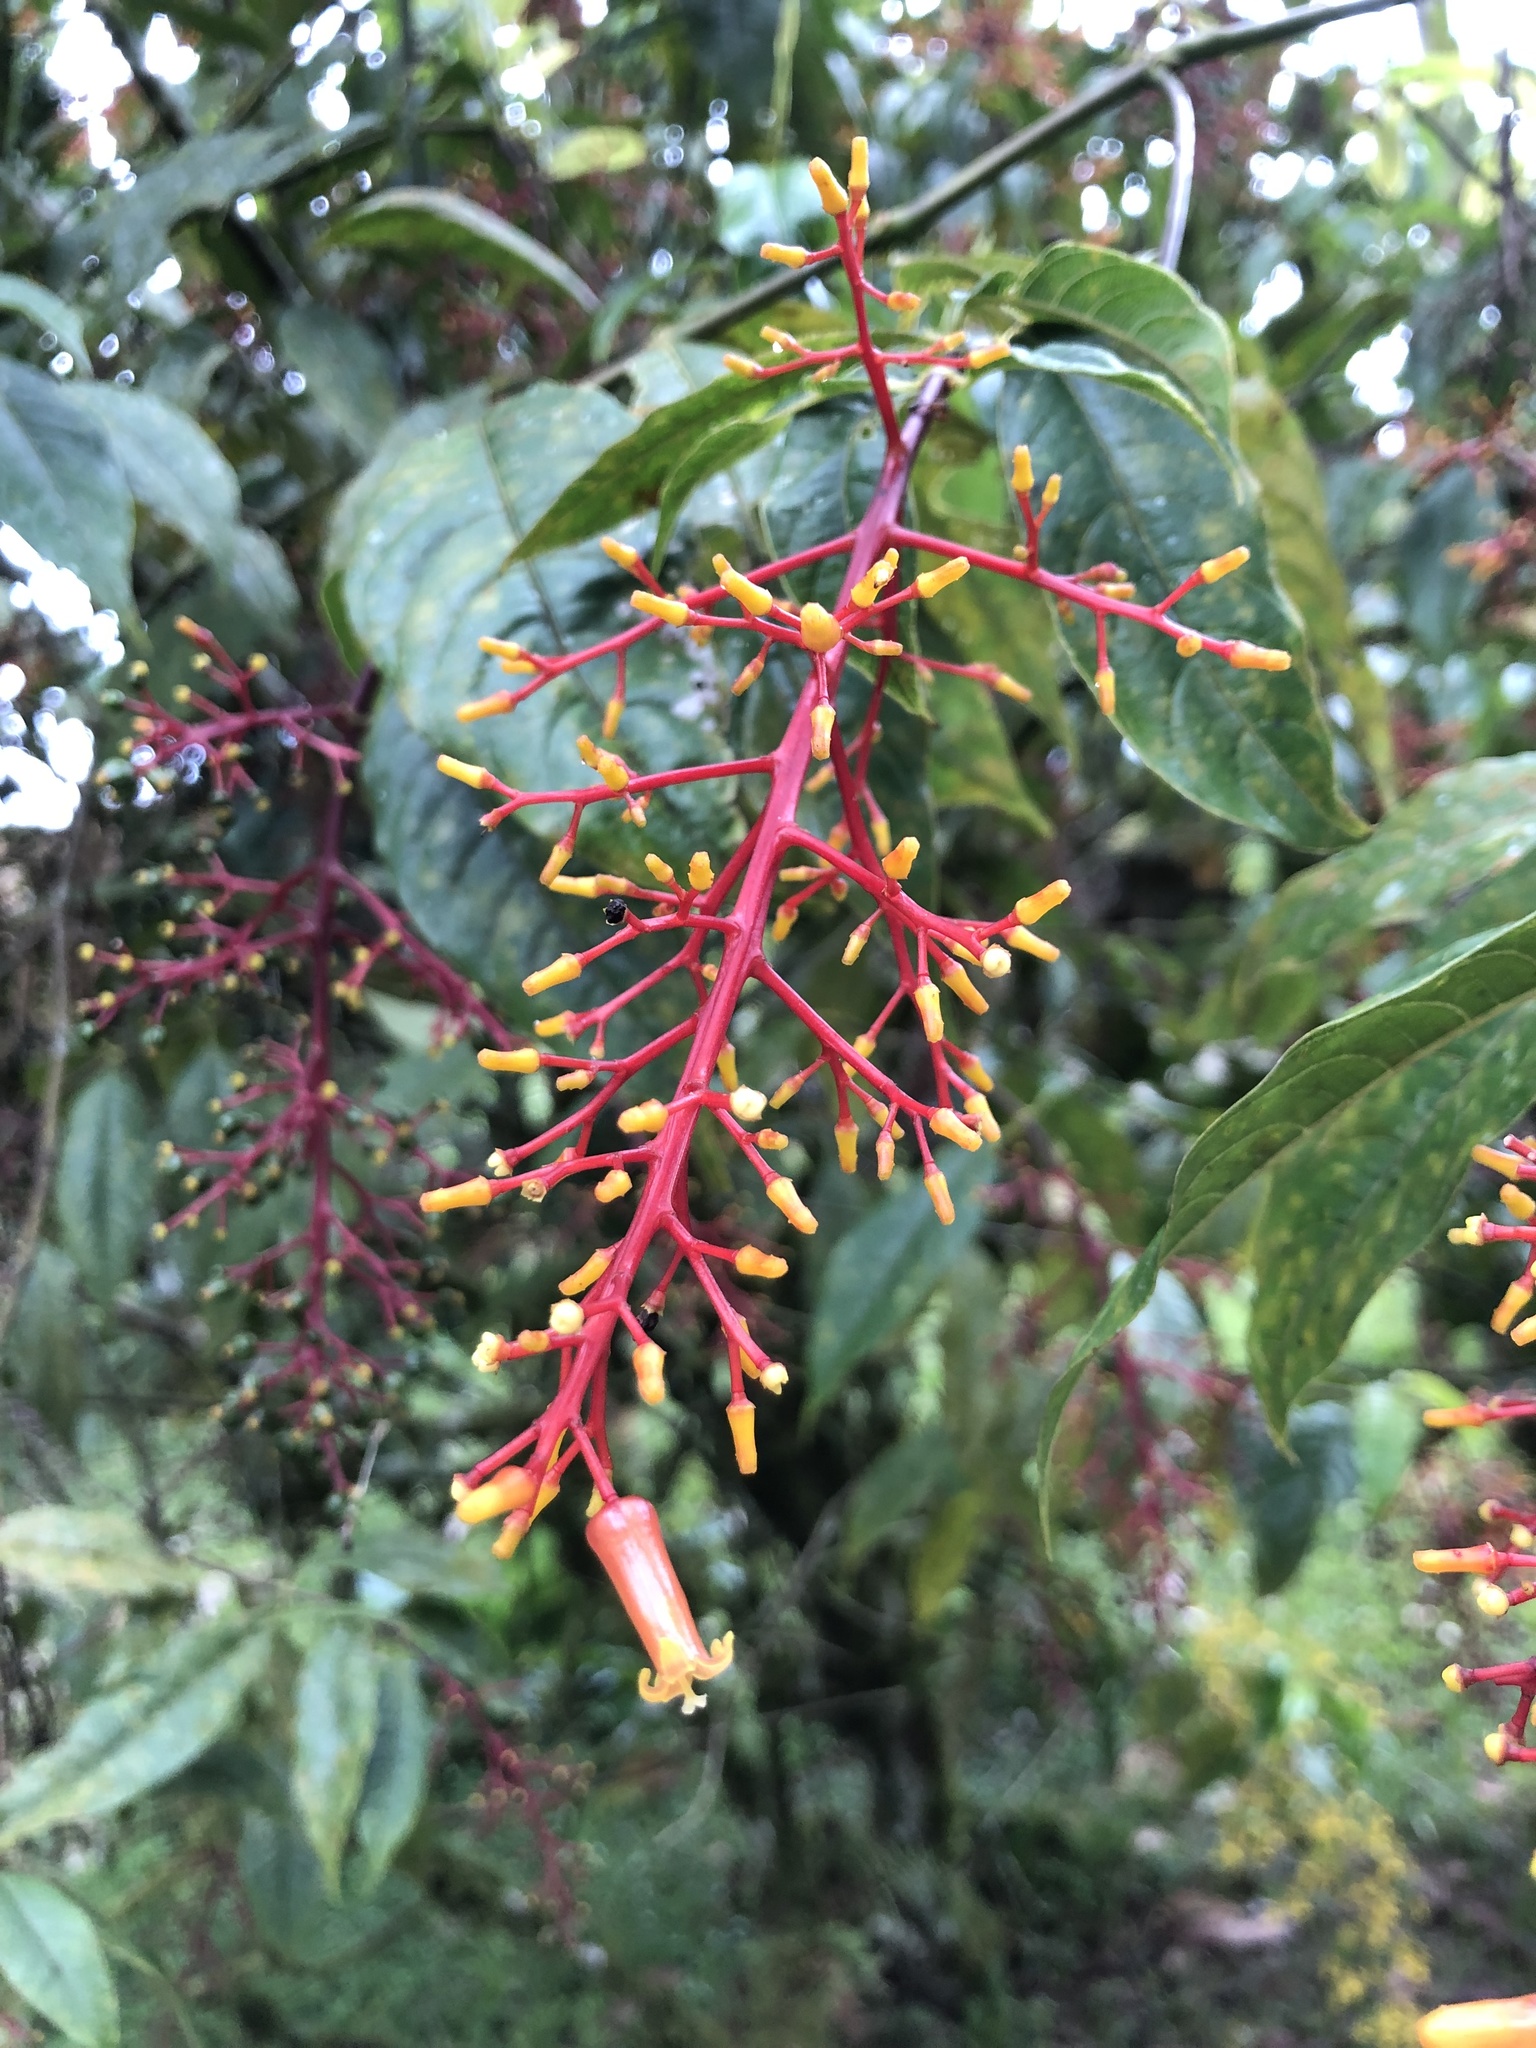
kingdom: Plantae
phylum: Tracheophyta
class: Magnoliopsida
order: Gentianales
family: Rubiaceae
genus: Palicourea
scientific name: Palicourea thyrsiflora
